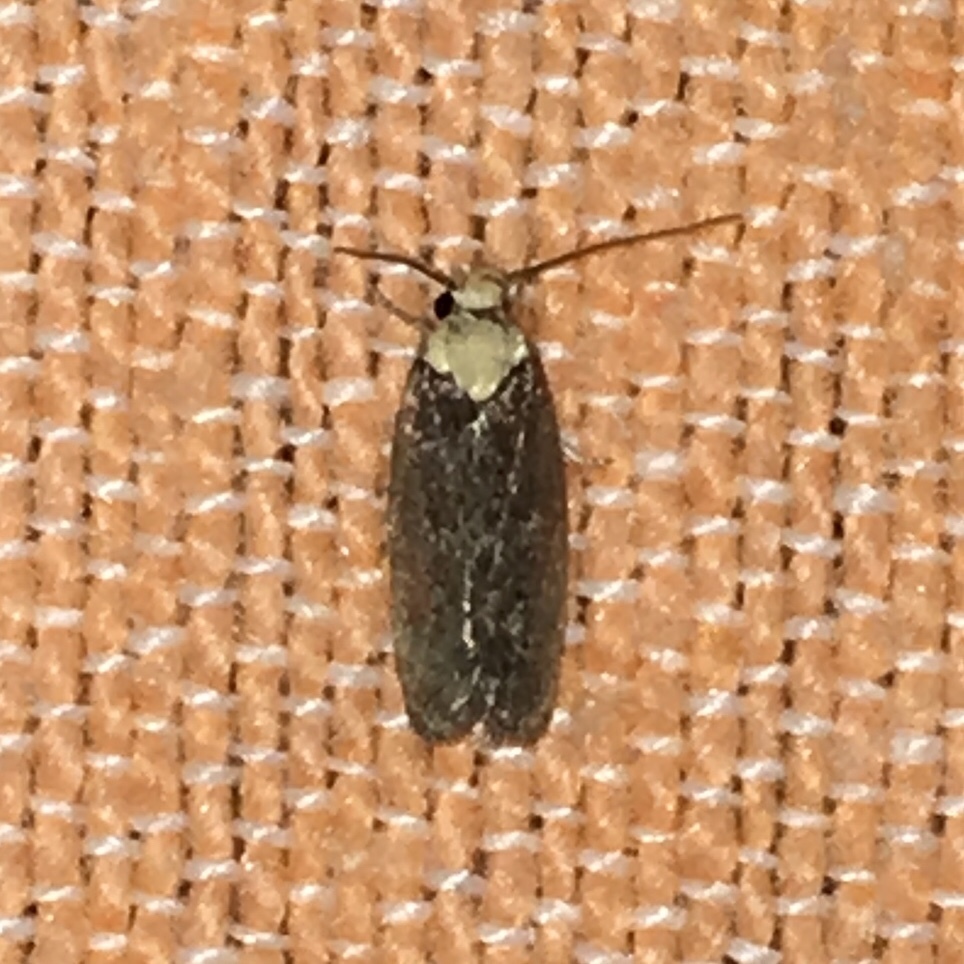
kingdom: Animalia
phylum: Arthropoda
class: Insecta
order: Lepidoptera
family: Depressariidae
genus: Depressaria
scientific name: Depressaria depressana
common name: Lost flat-body
